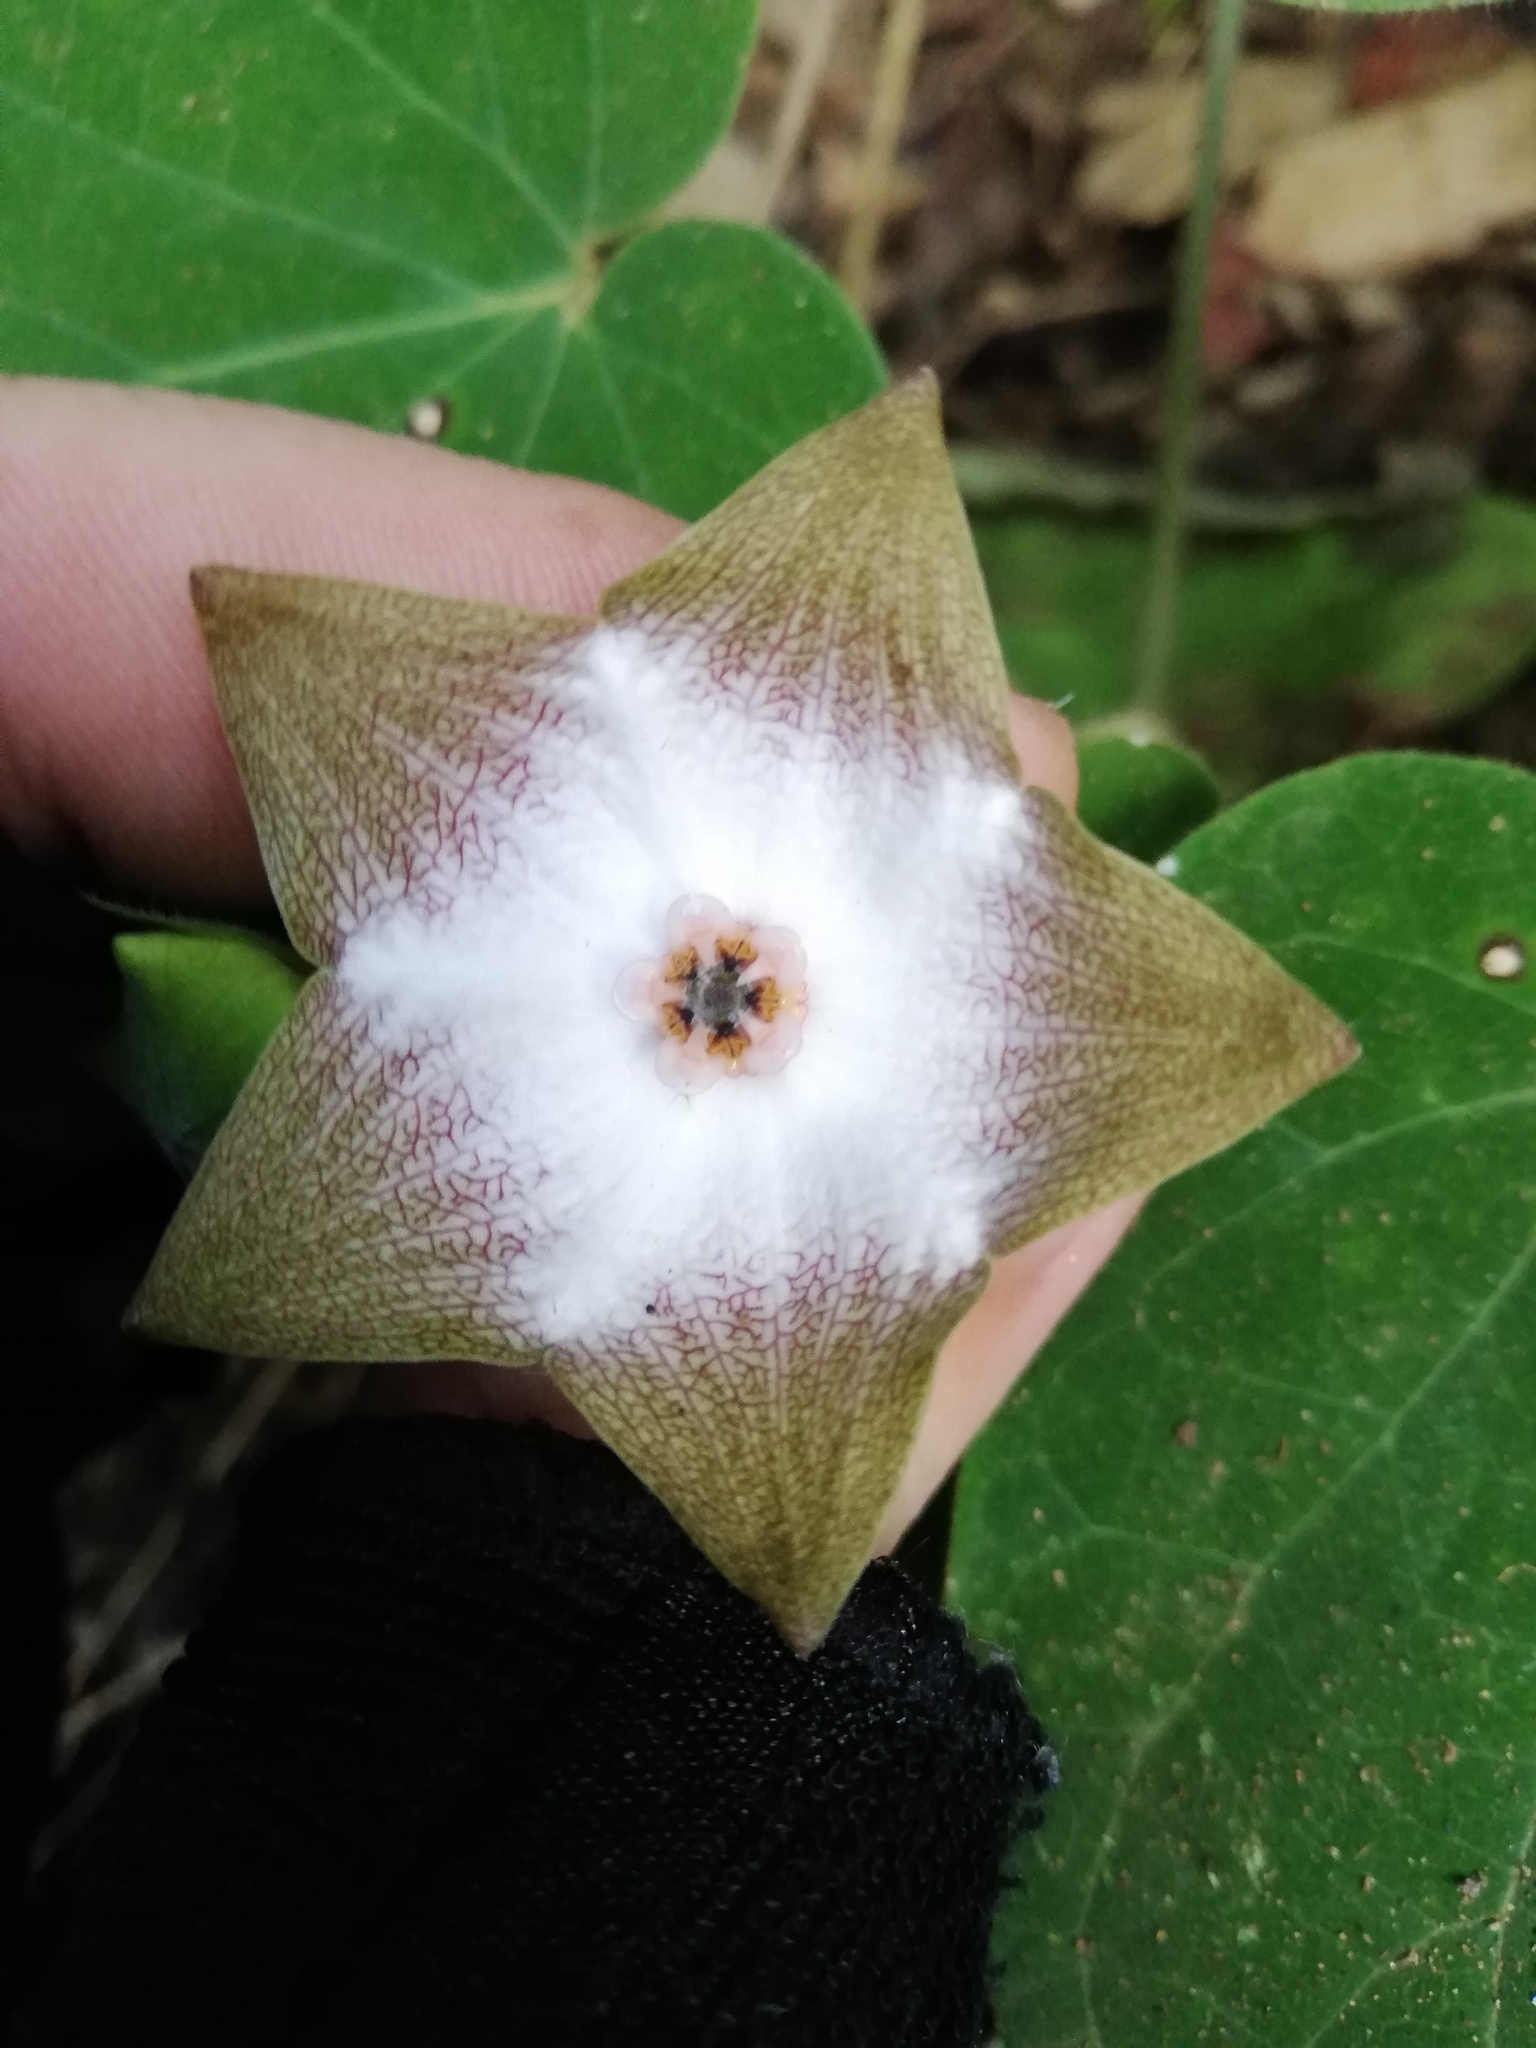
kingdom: Plantae
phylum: Tracheophyta
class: Magnoliopsida
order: Gentianales
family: Apocynaceae
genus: Polystemma
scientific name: Polystemma guatemalense
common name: Arborescente rattan
